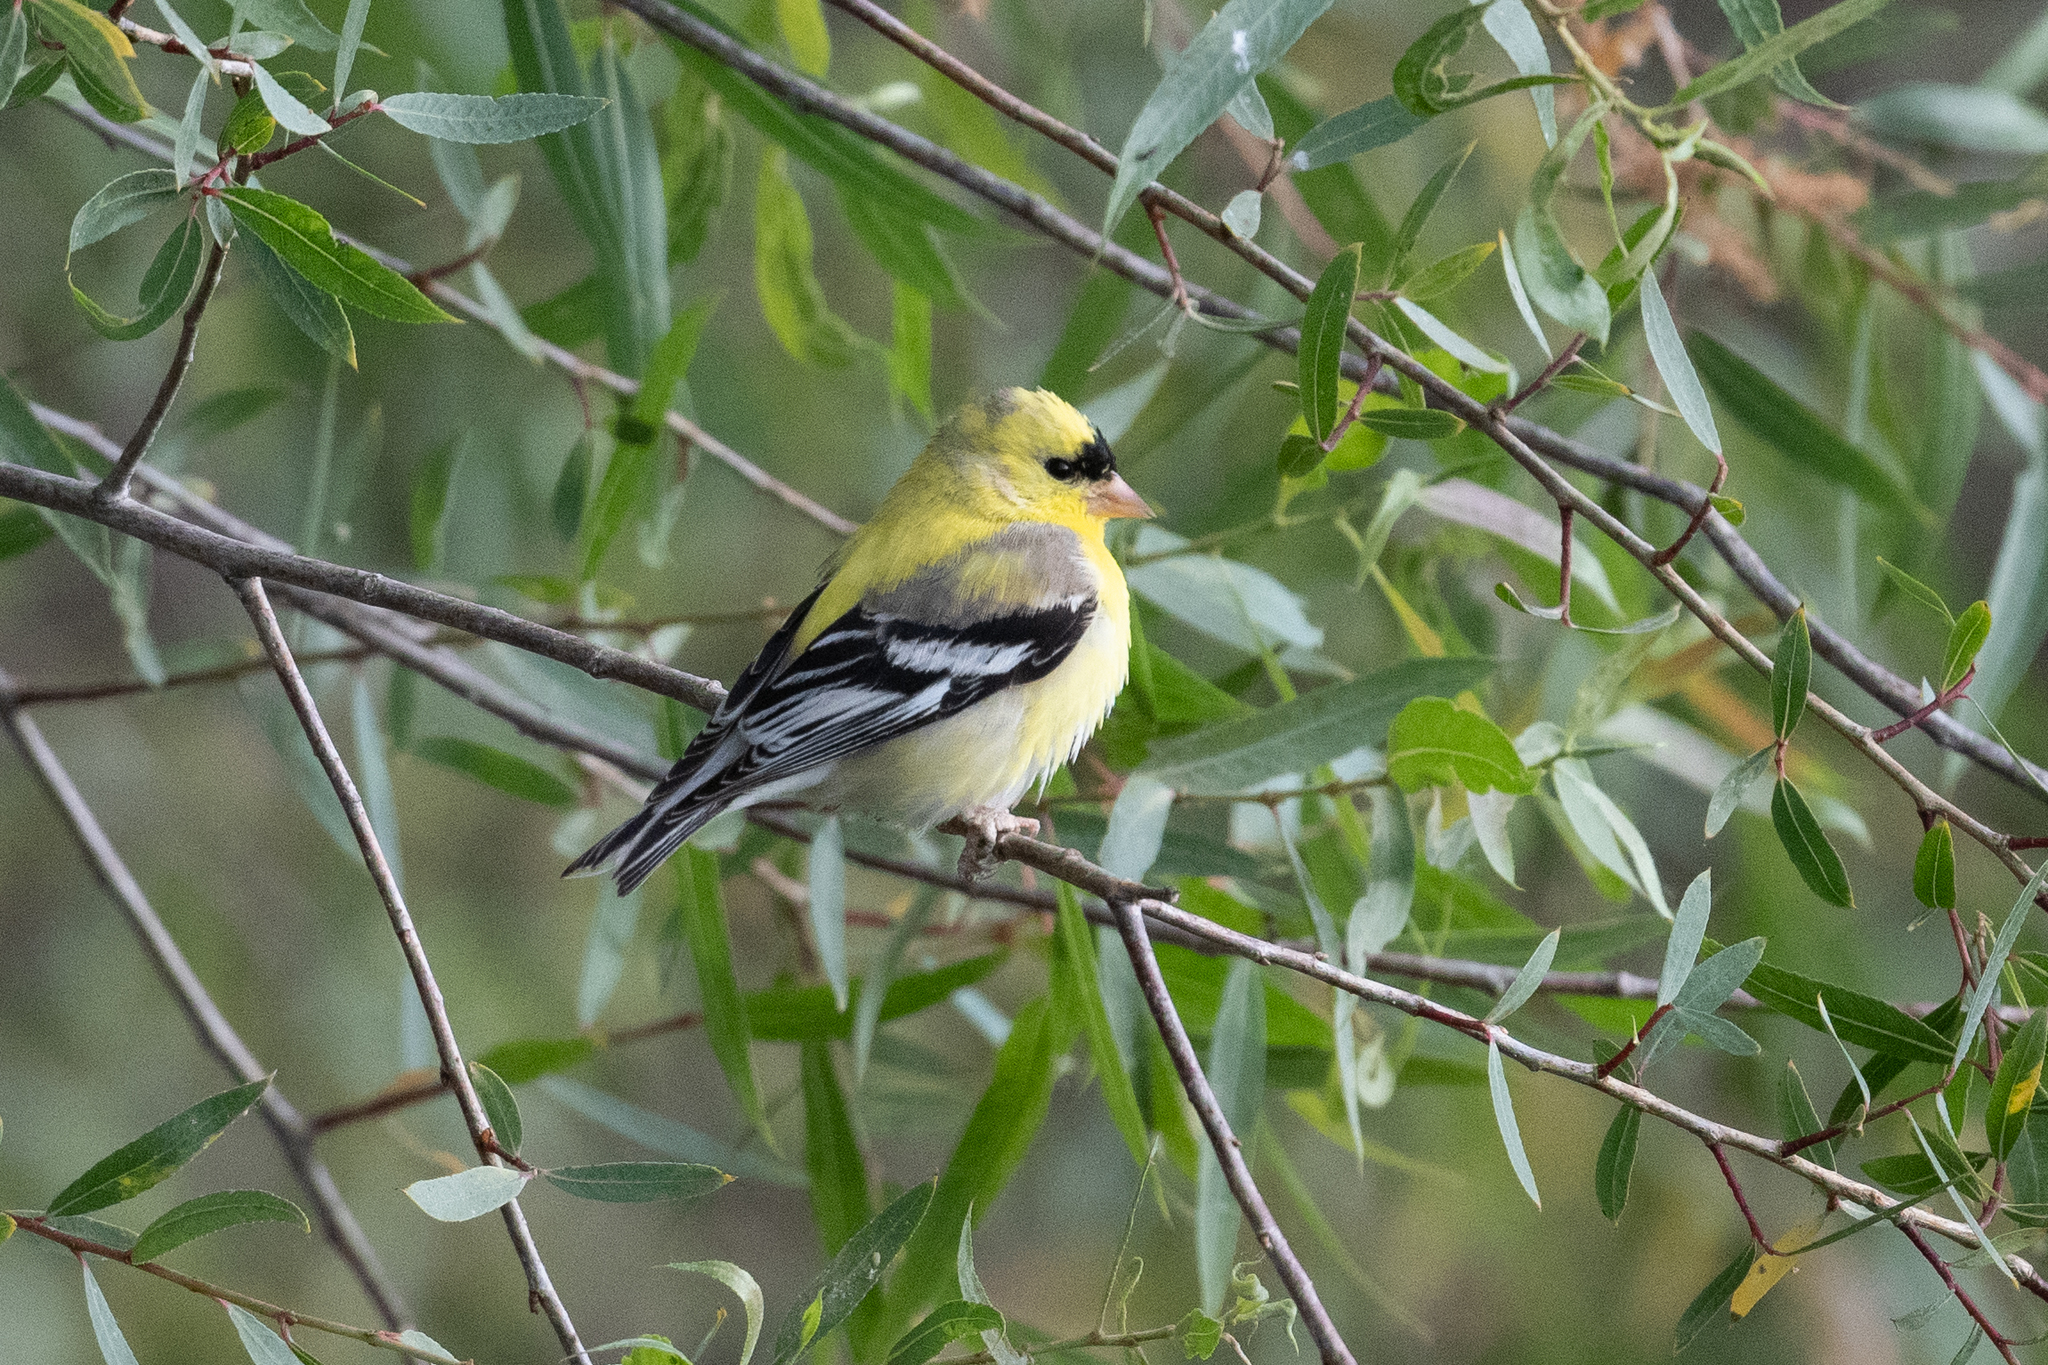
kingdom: Animalia
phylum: Chordata
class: Aves
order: Passeriformes
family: Fringillidae
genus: Spinus
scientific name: Spinus tristis
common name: American goldfinch
